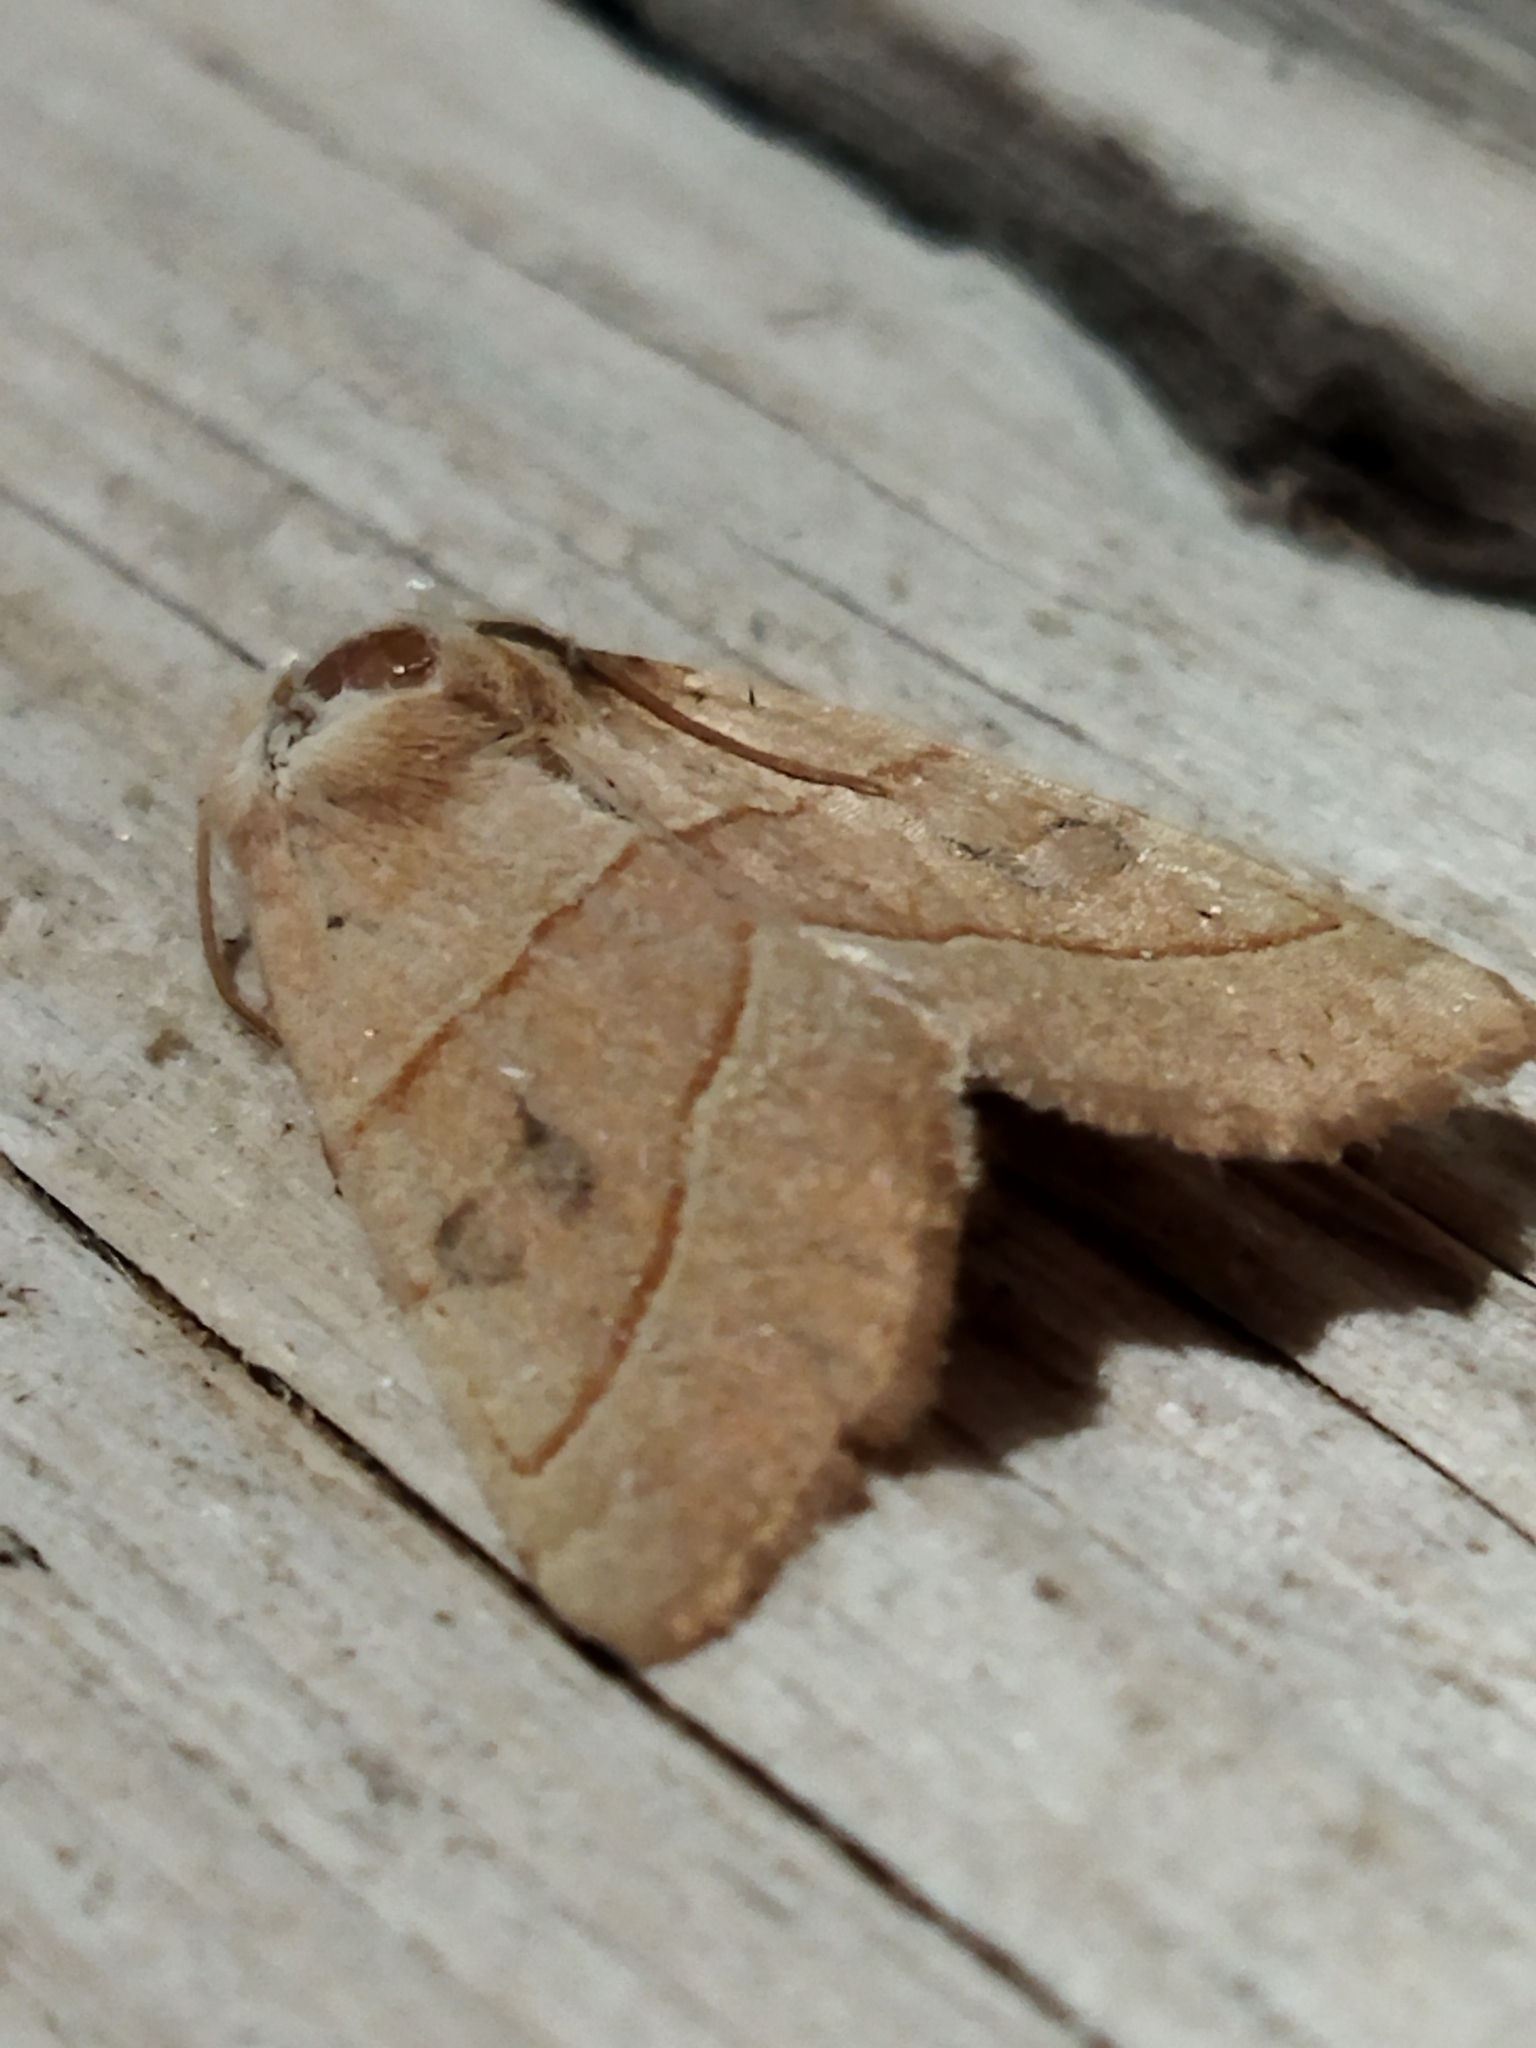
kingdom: Animalia
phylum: Arthropoda
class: Insecta
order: Lepidoptera
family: Noctuidae
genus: Atethmia
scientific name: Atethmia centrago
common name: Centre-barred sallow
